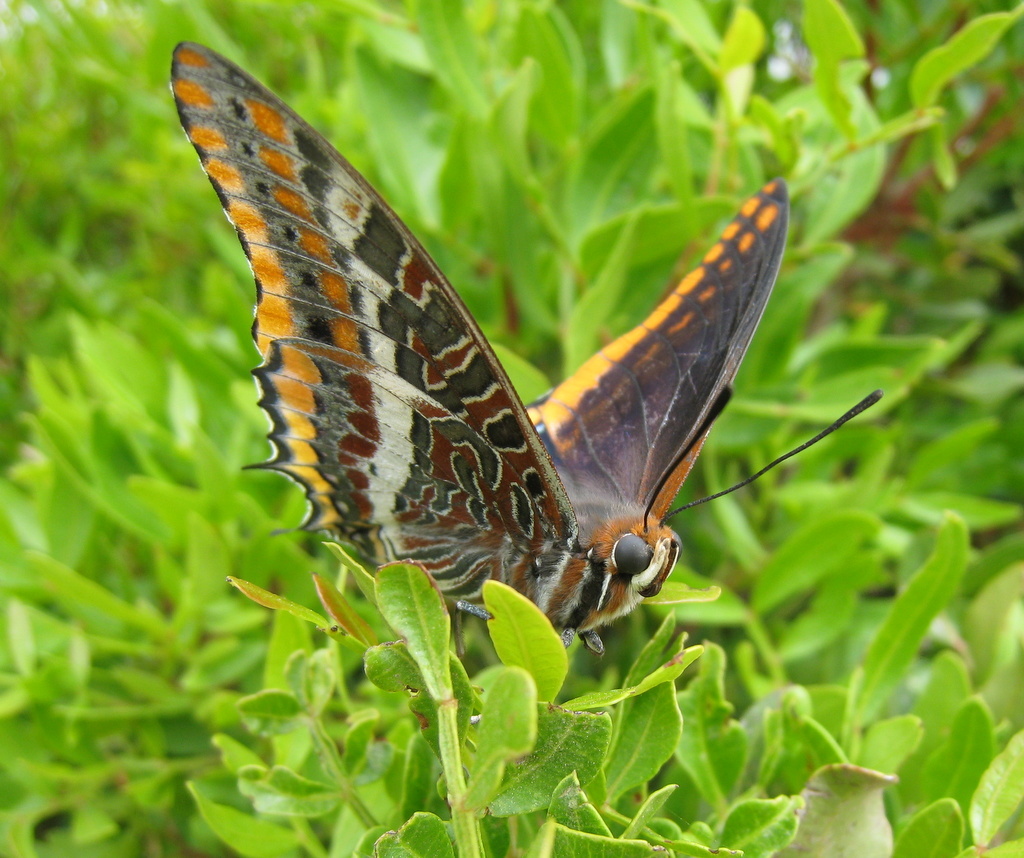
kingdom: Animalia
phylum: Arthropoda
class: Insecta
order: Lepidoptera
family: Nymphalidae
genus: Charaxes
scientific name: Charaxes jasius
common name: Two tailed pasha
